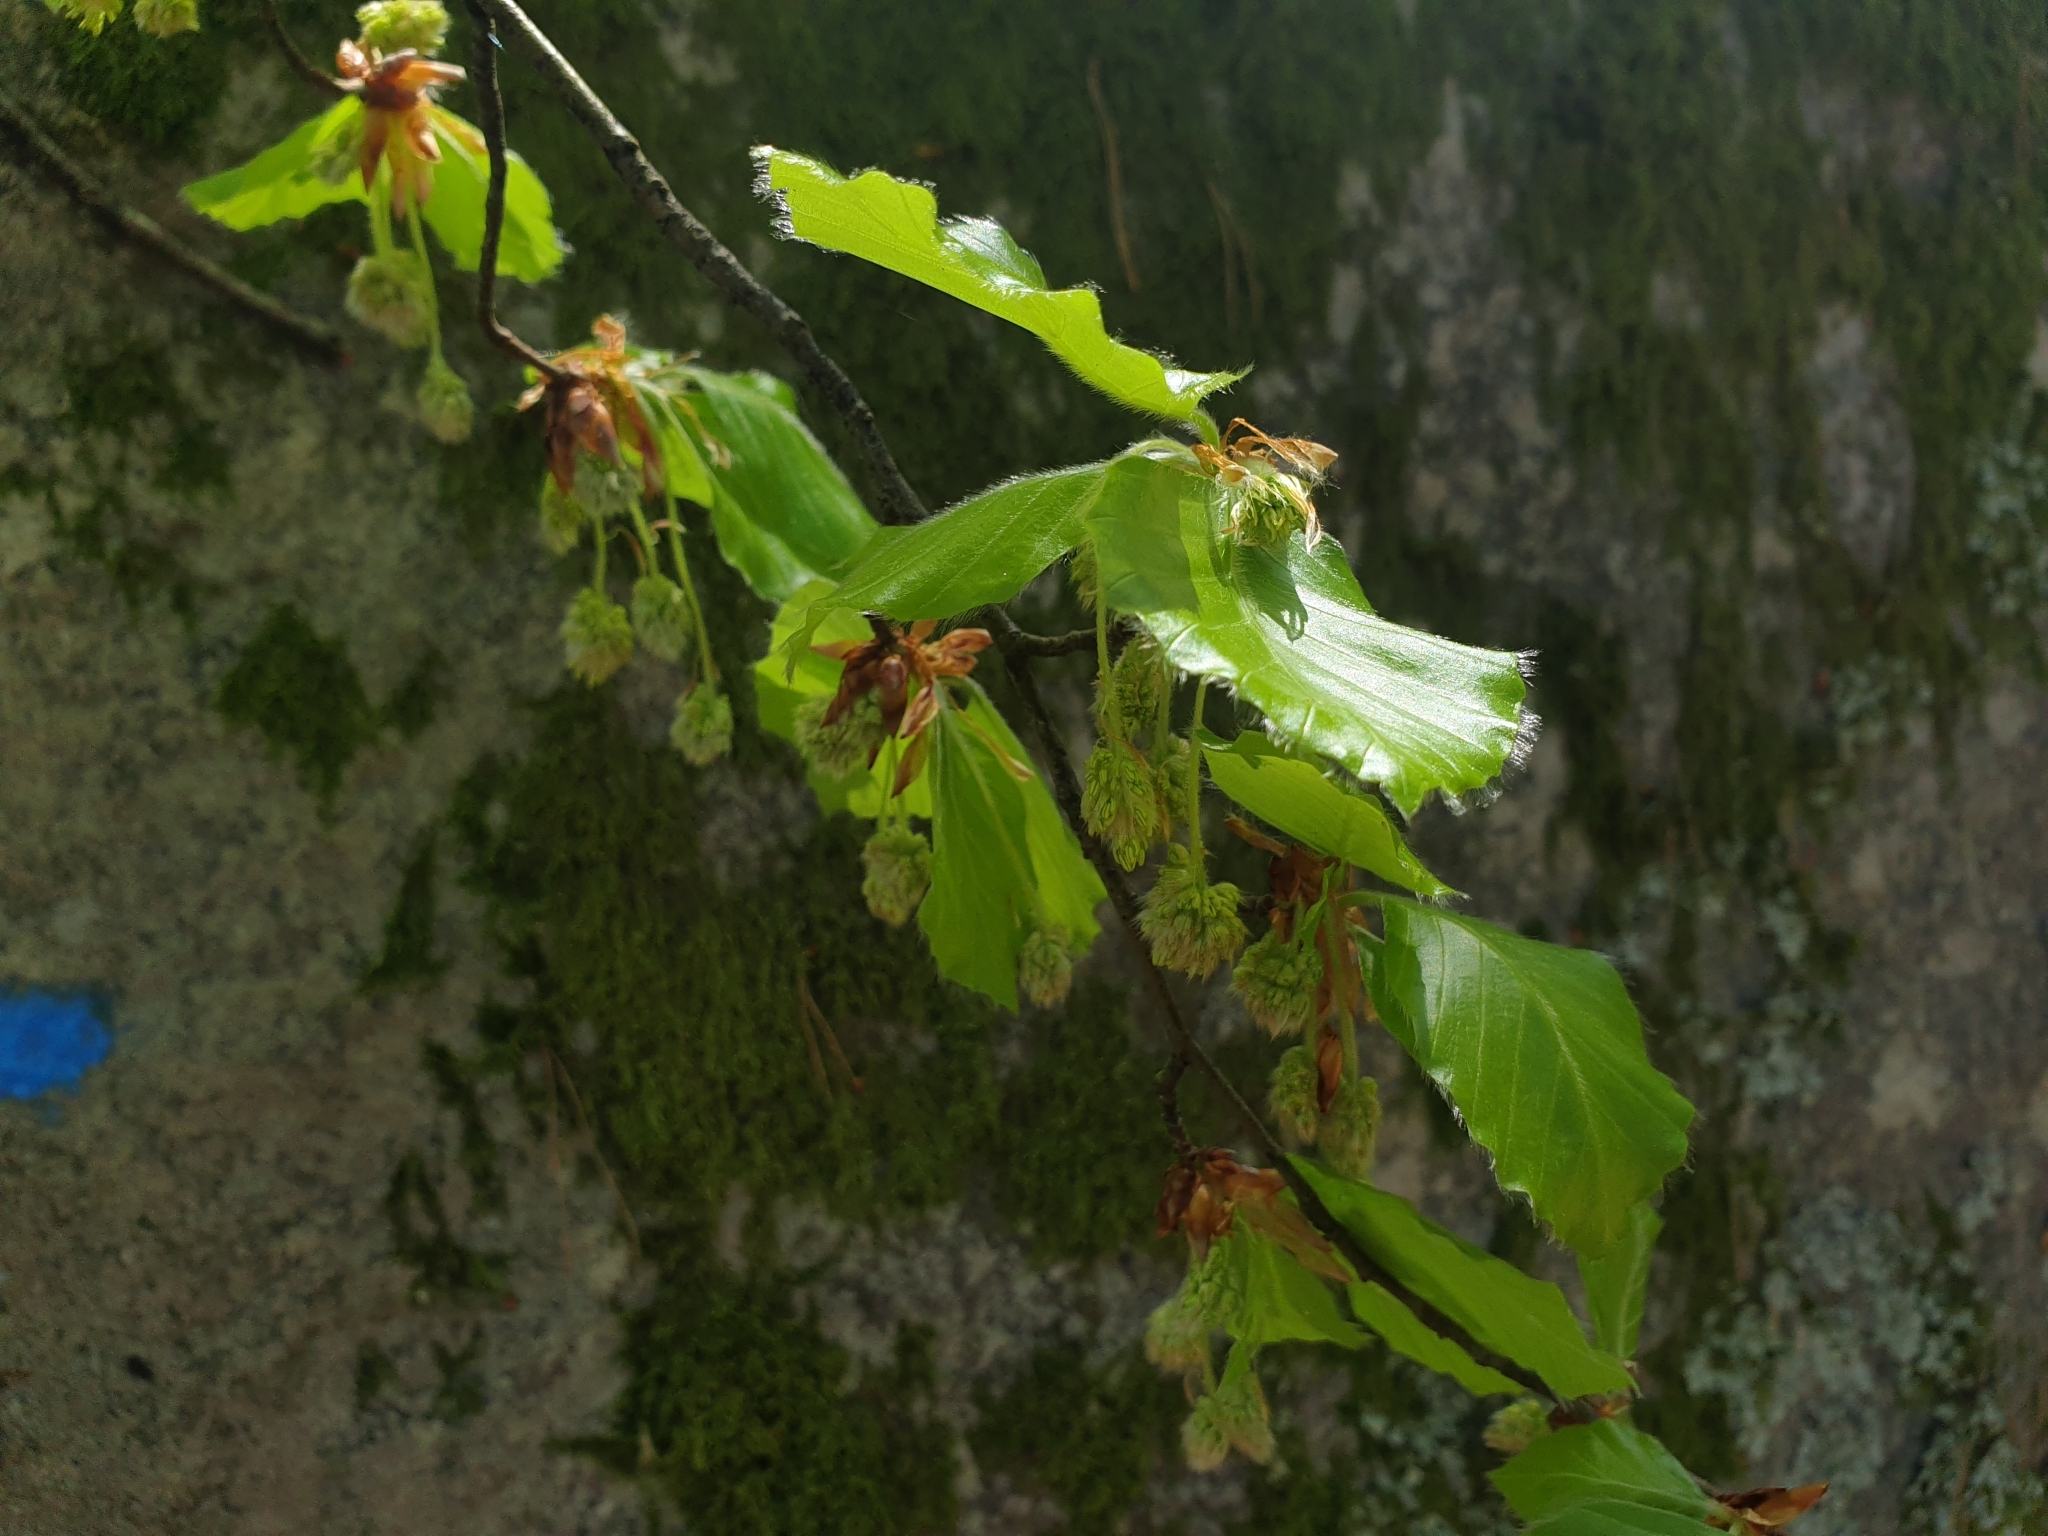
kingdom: Plantae
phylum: Tracheophyta
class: Magnoliopsida
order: Fagales
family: Fagaceae
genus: Fagus
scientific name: Fagus sylvatica
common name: Beech
